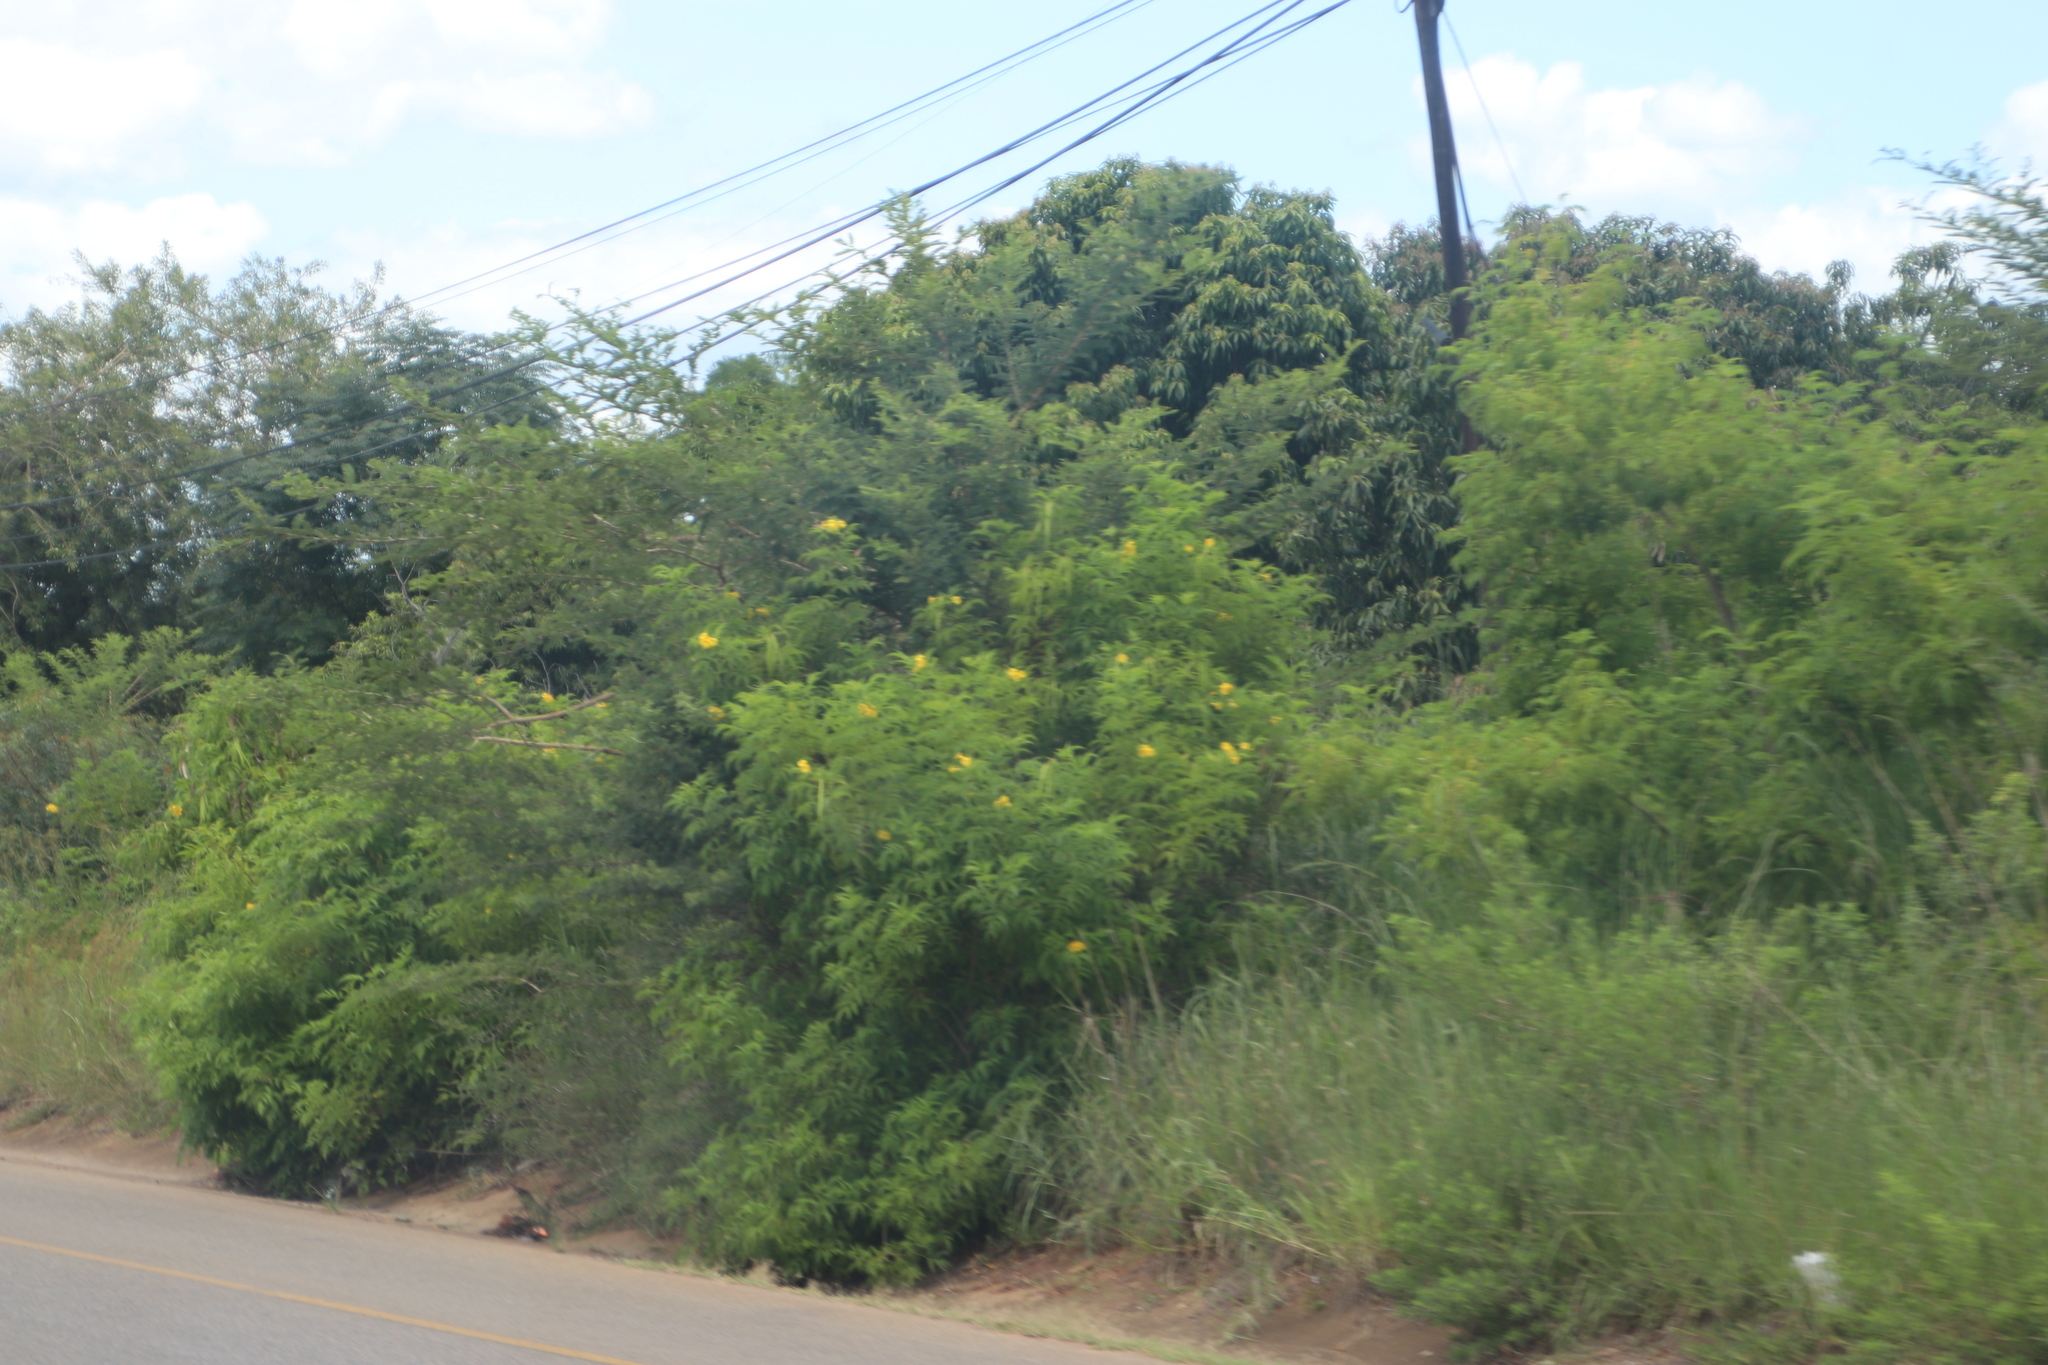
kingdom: Plantae
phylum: Tracheophyta
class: Magnoliopsida
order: Lamiales
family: Bignoniaceae
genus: Tecoma
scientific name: Tecoma stans
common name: Yellow trumpetbush
